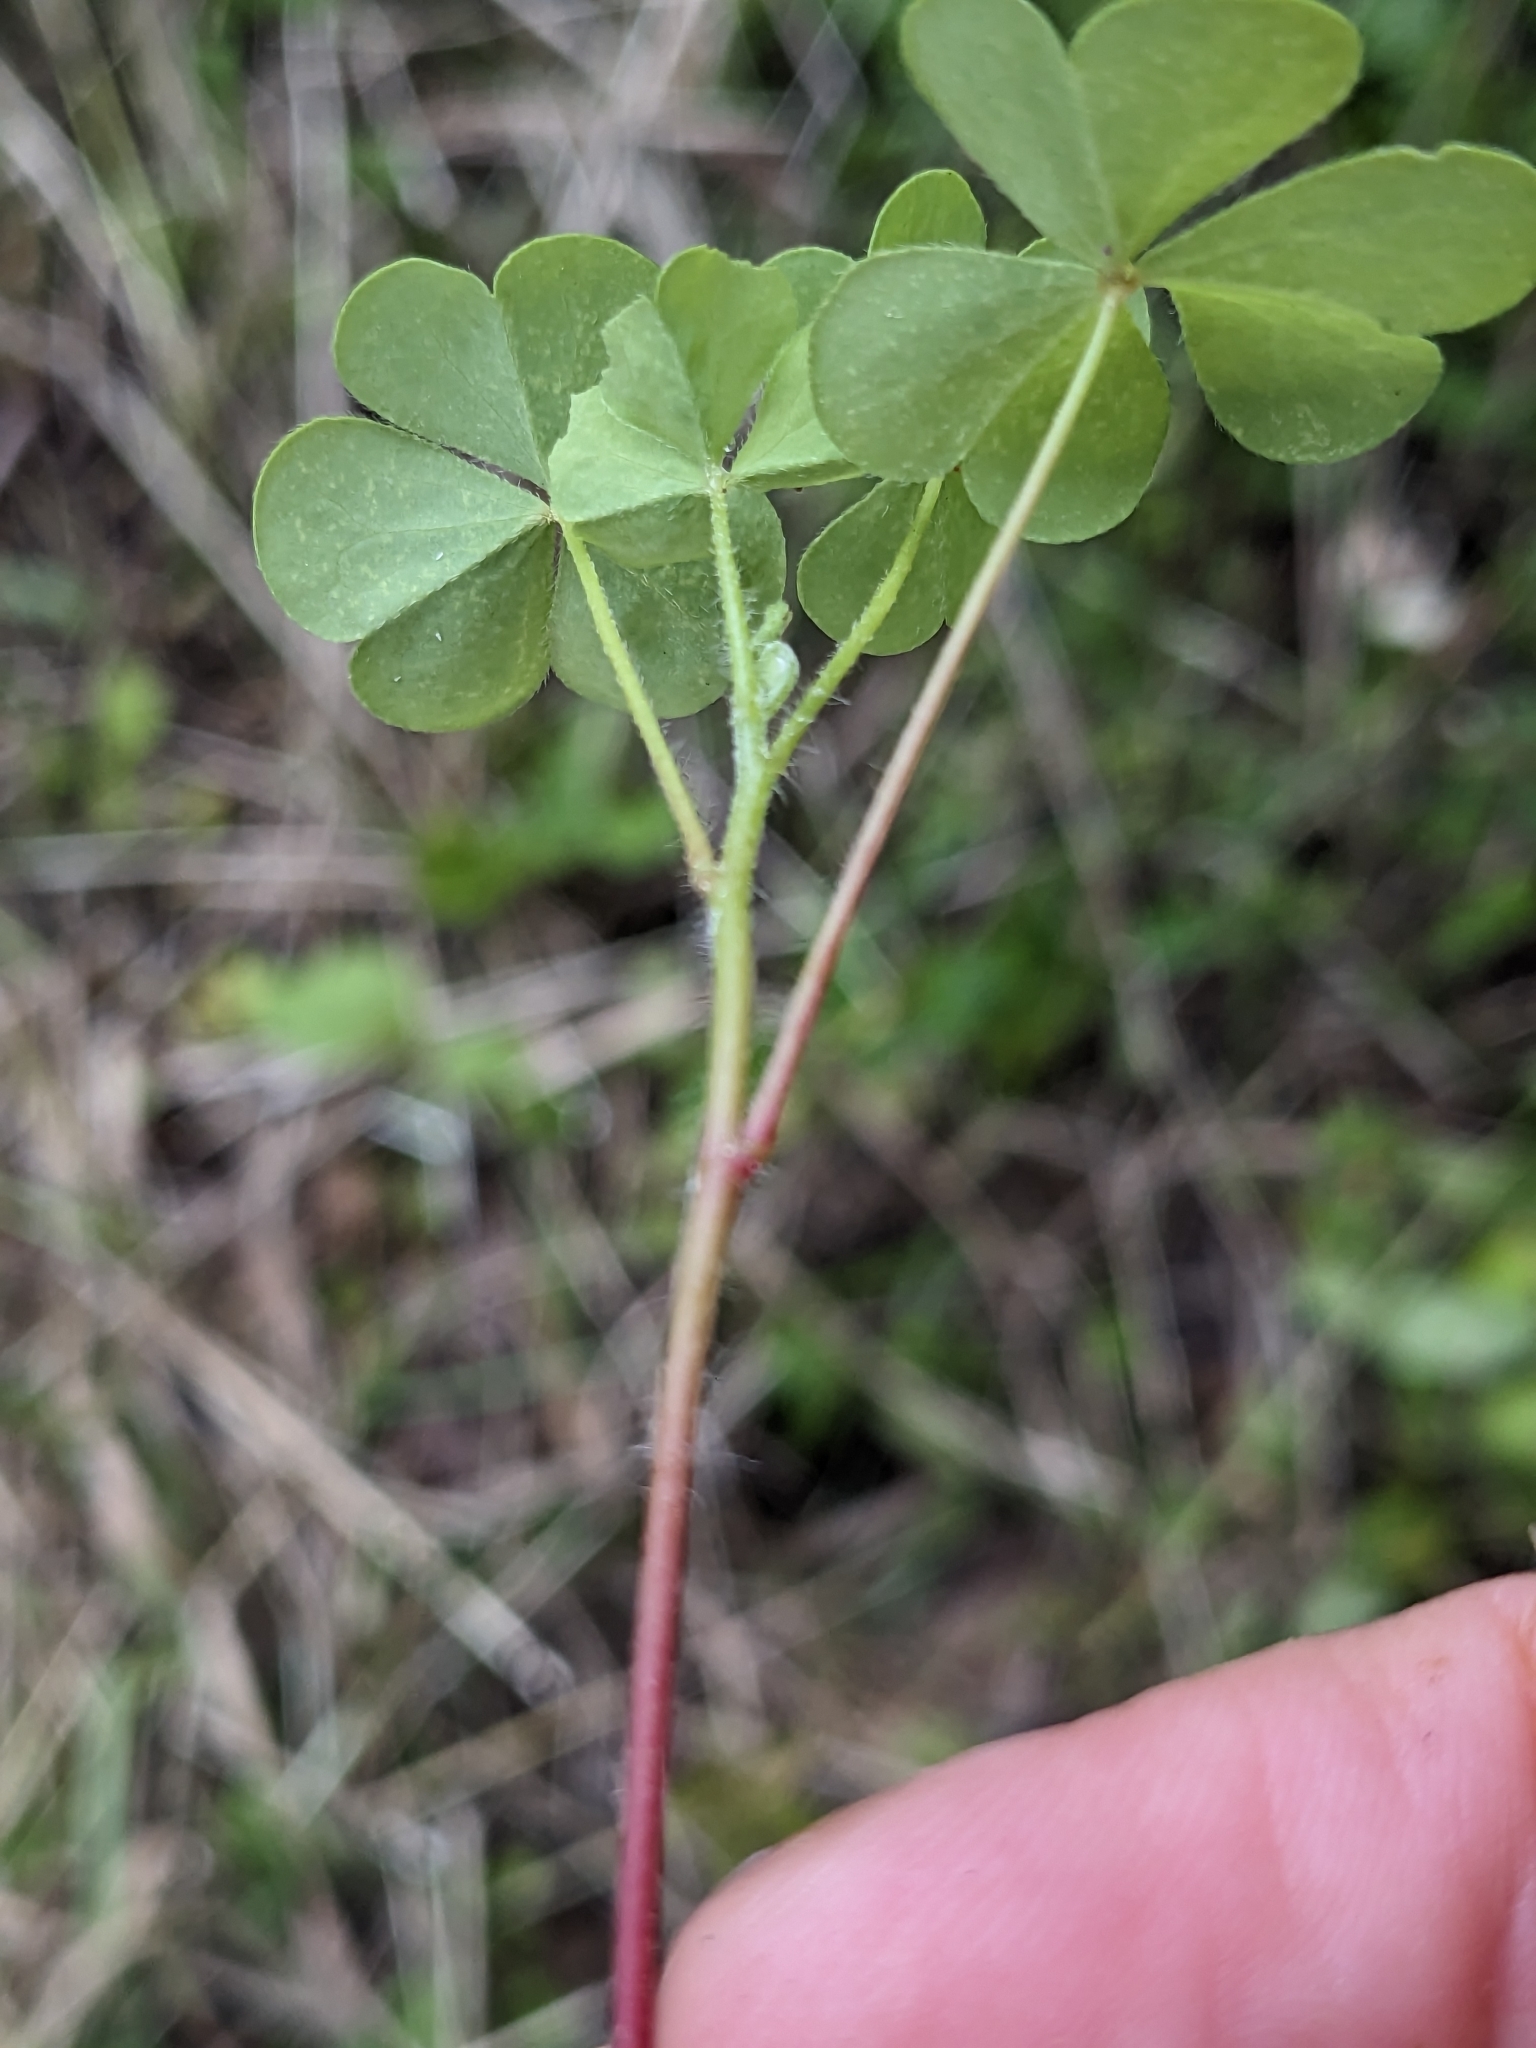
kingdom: Plantae
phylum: Tracheophyta
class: Magnoliopsida
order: Oxalidales
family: Oxalidaceae
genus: Oxalis
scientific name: Oxalis stricta
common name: Upright yellow-sorrel
